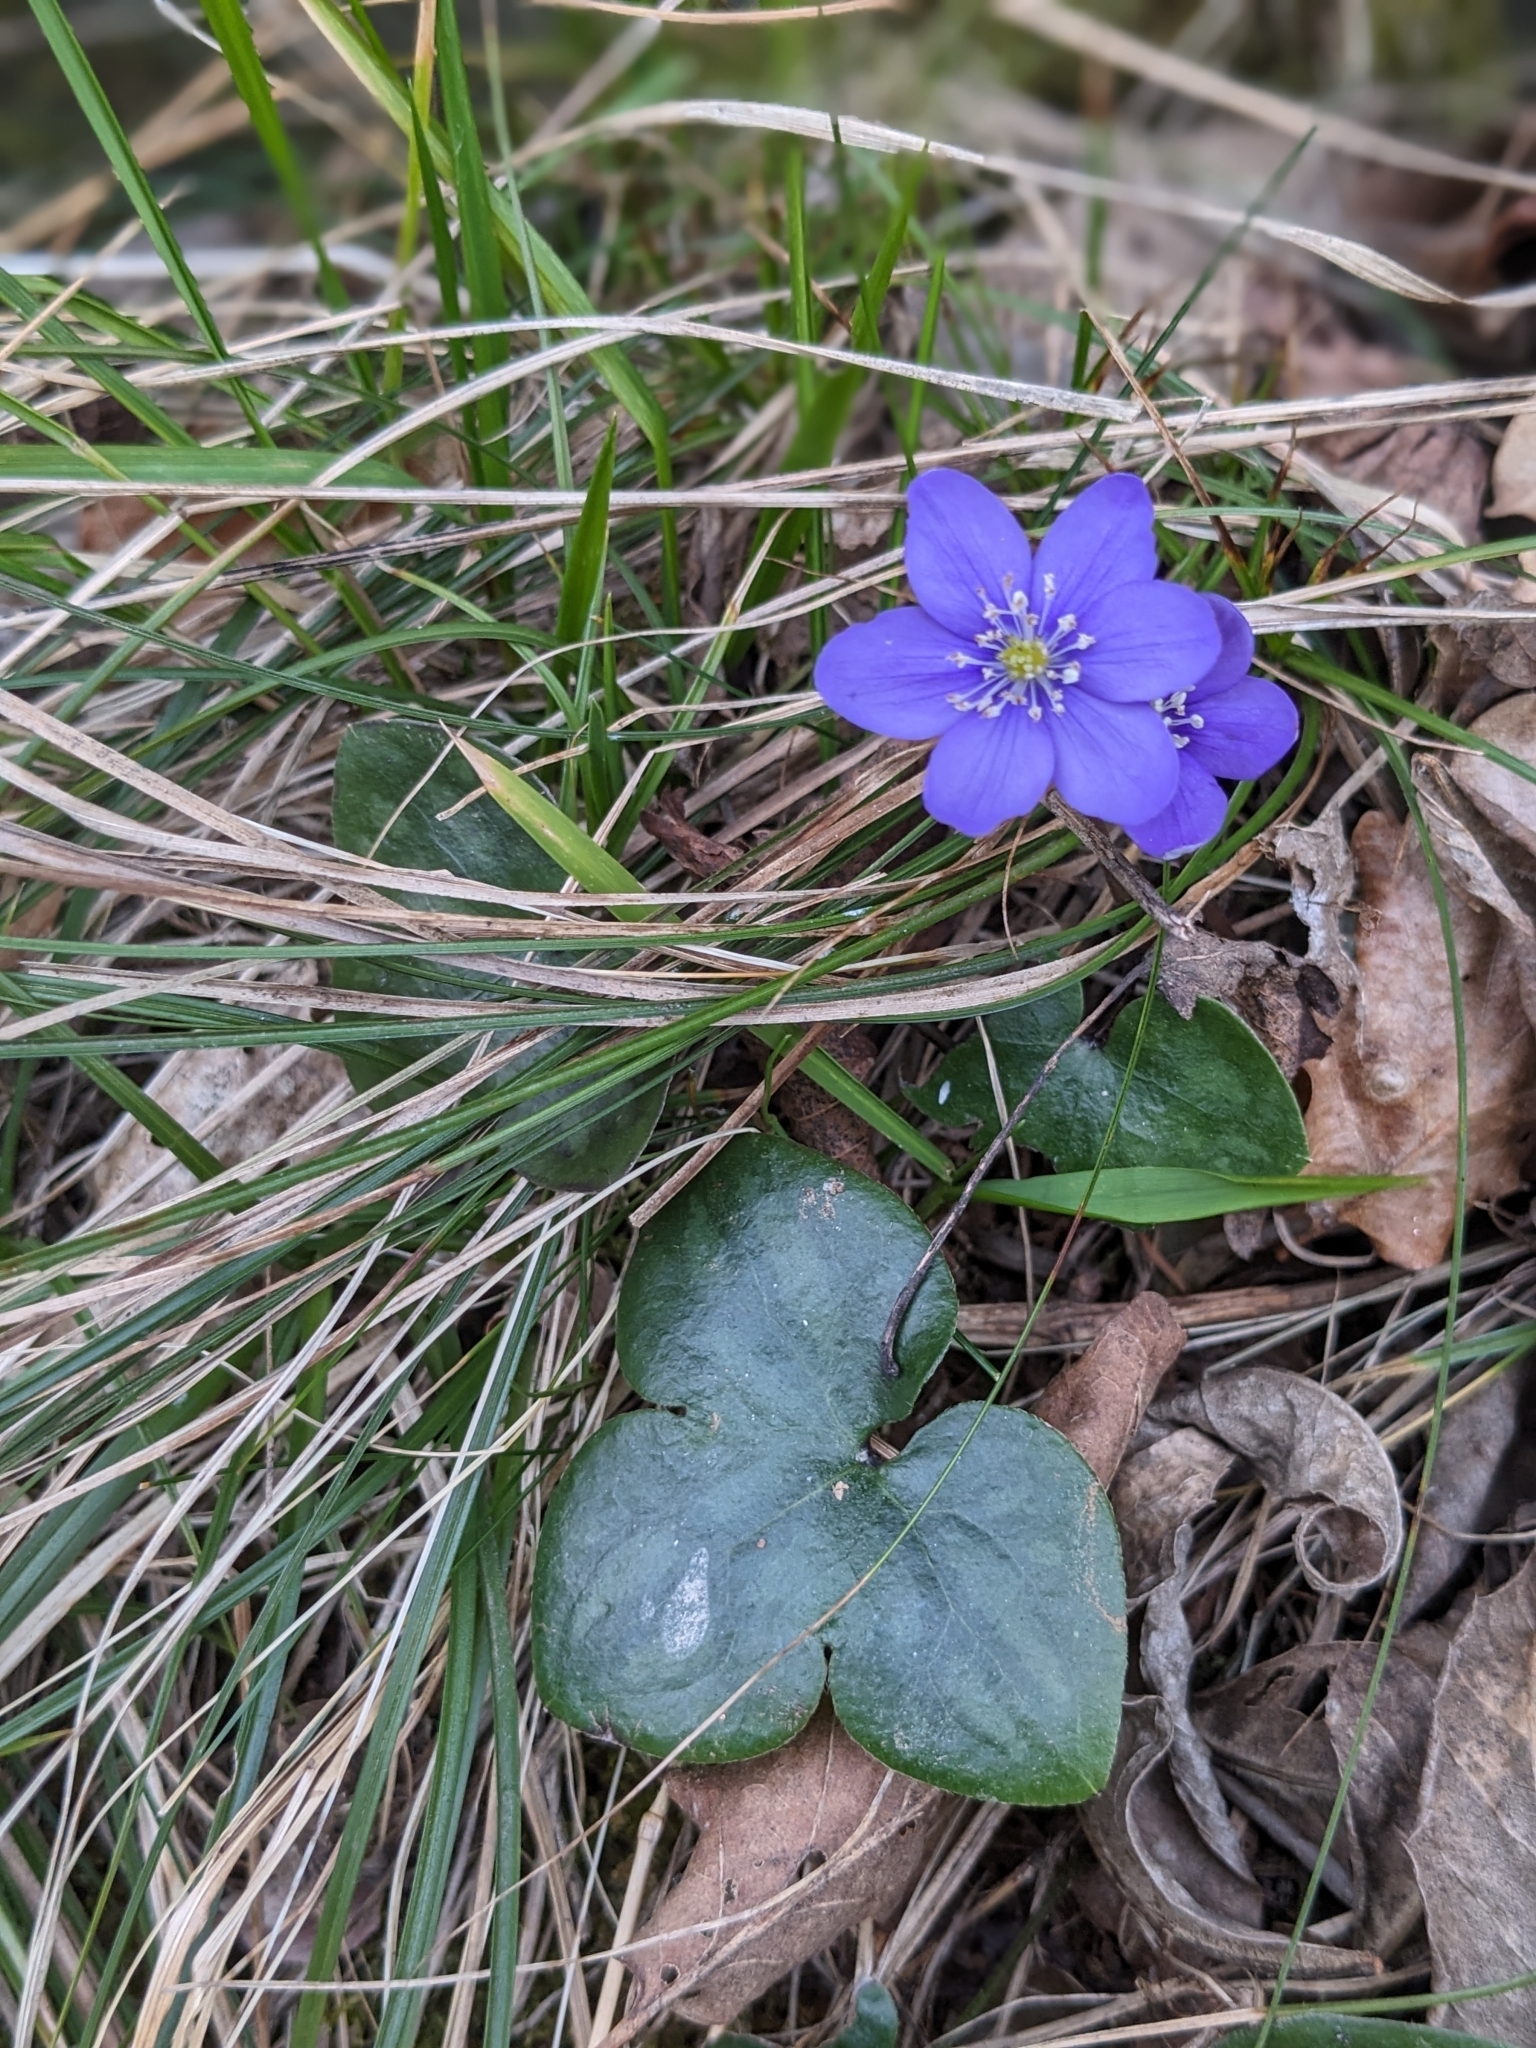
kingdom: Plantae
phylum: Tracheophyta
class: Magnoliopsida
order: Ranunculales
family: Ranunculaceae
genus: Hepatica
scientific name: Hepatica nobilis
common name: Liverleaf
